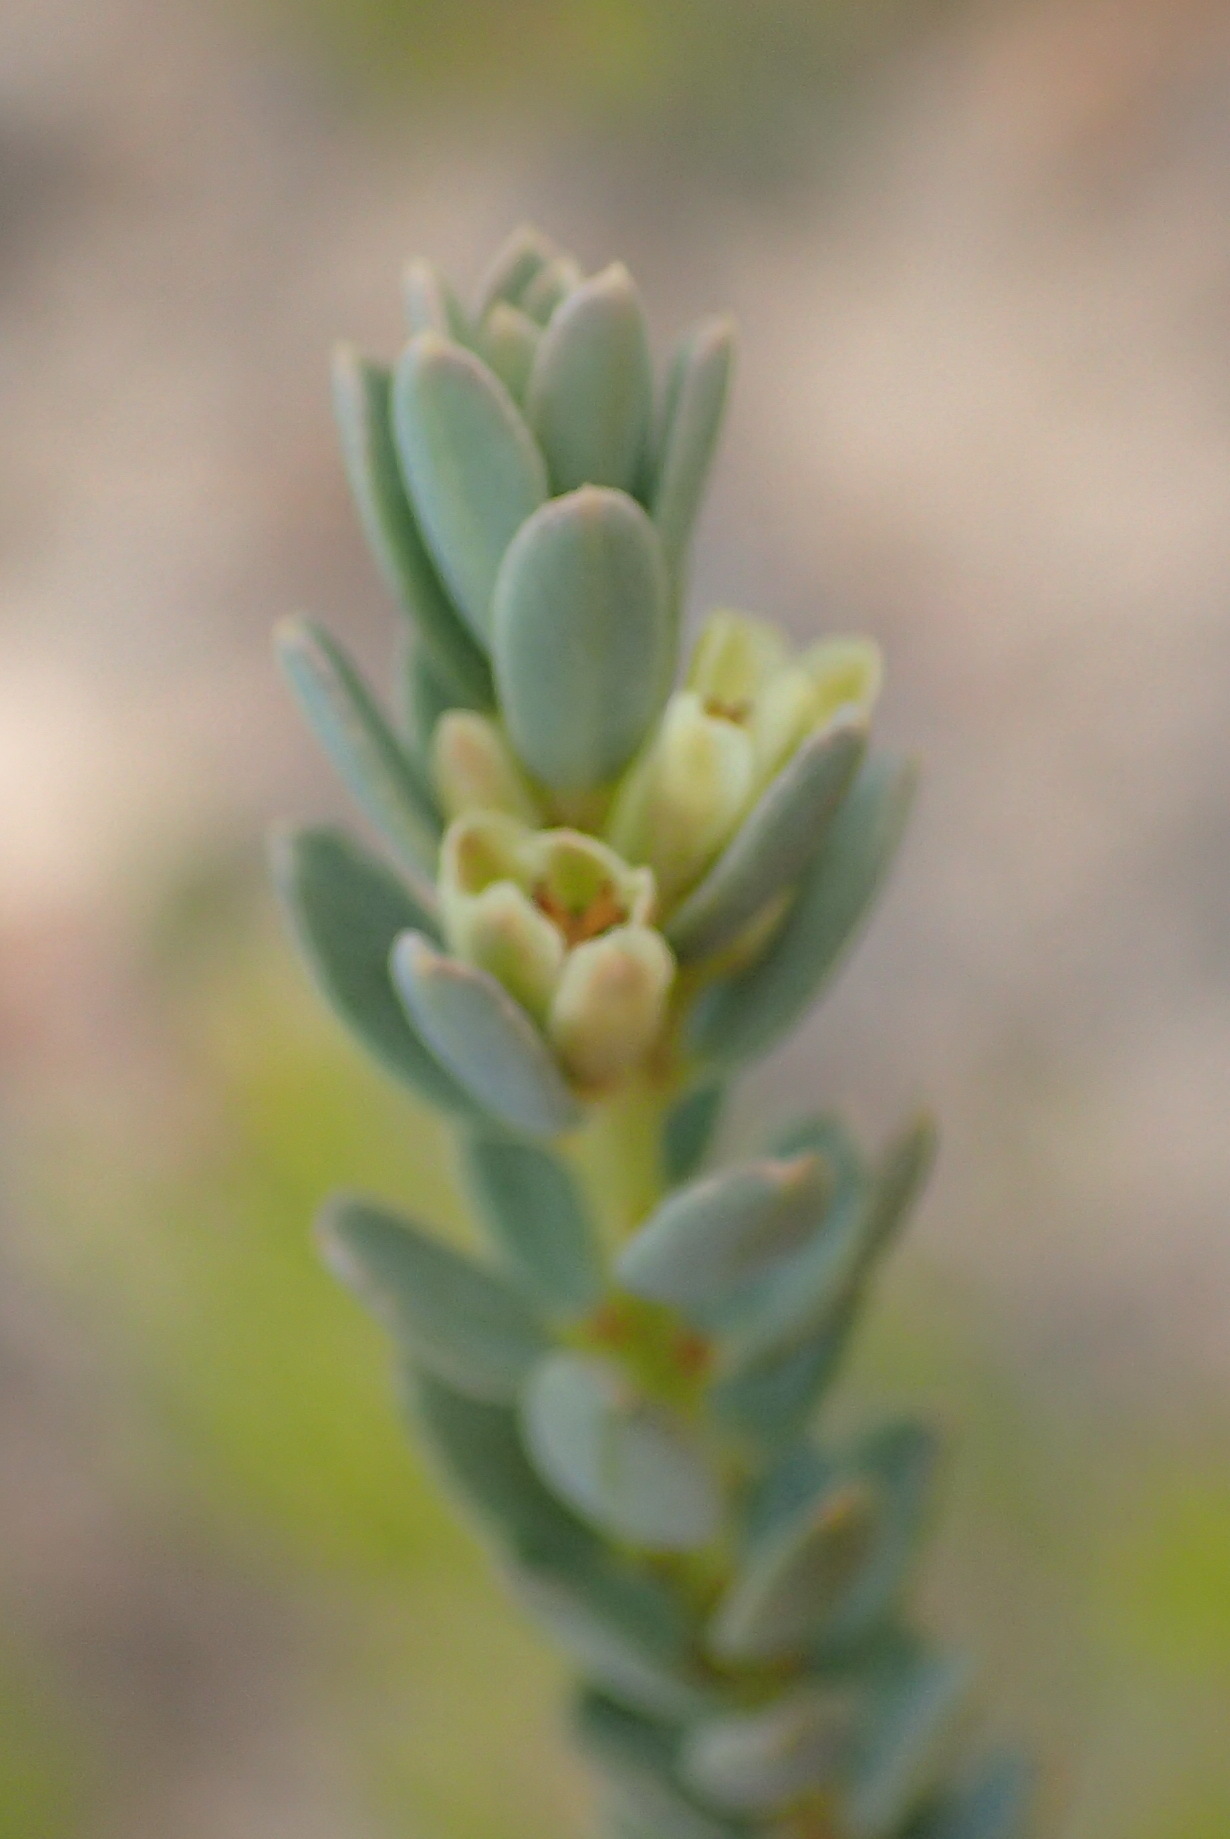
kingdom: Plantae
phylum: Tracheophyta
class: Magnoliopsida
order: Malpighiales
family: Peraceae
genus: Clutia
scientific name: Clutia laxa
